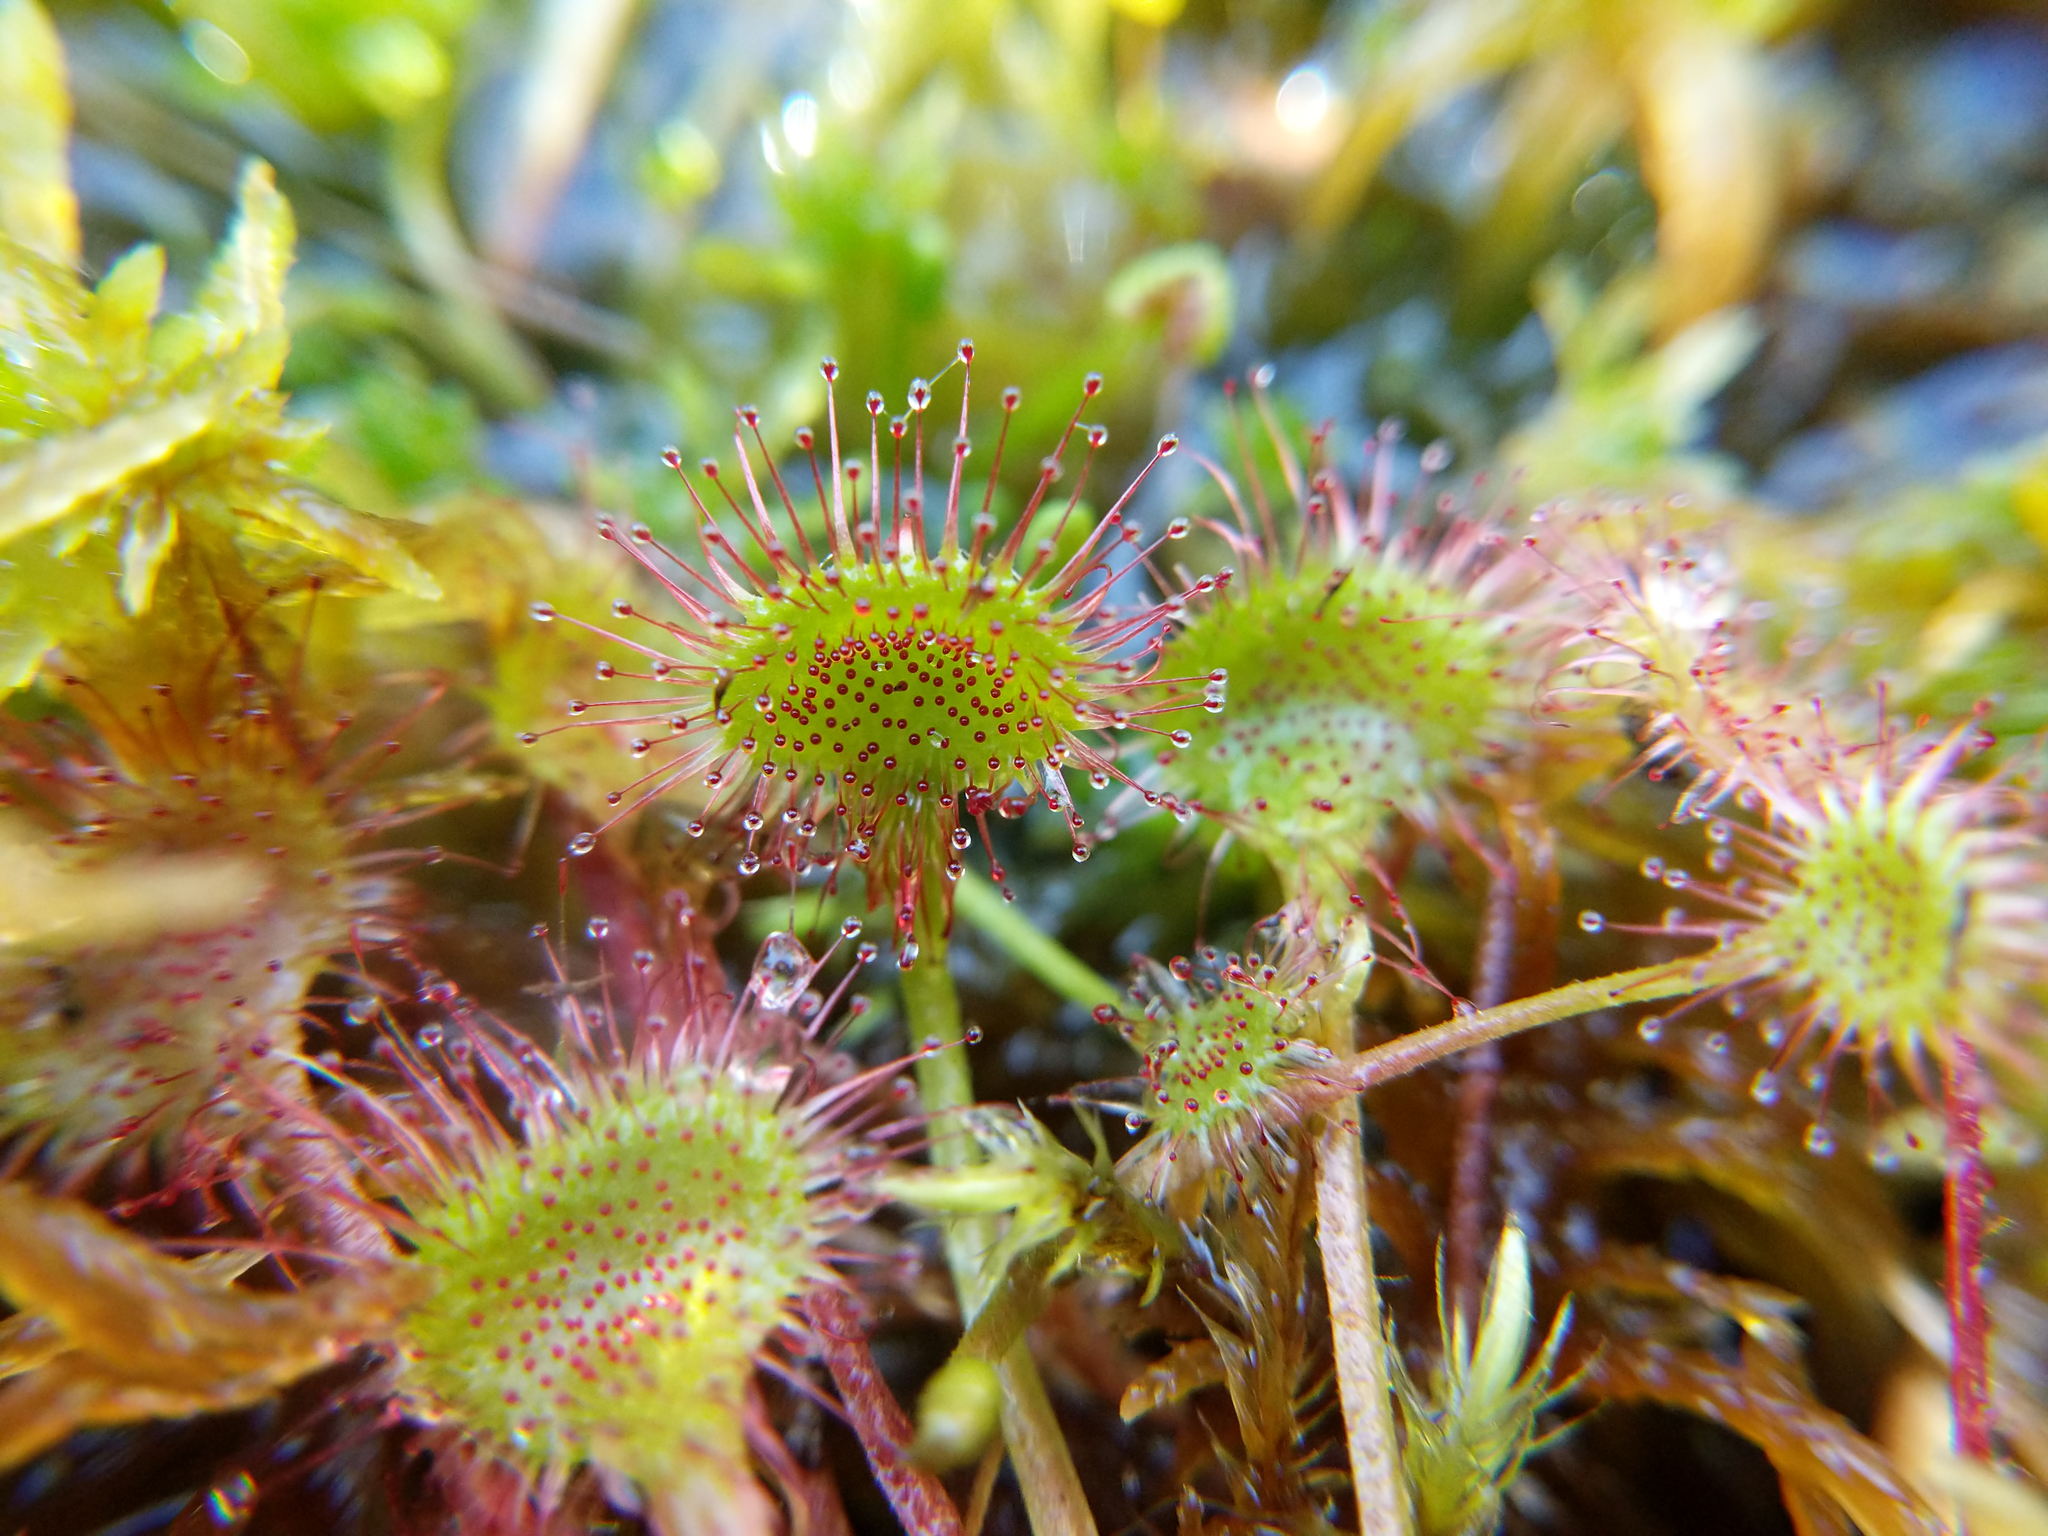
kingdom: Plantae
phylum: Tracheophyta
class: Magnoliopsida
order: Caryophyllales
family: Droseraceae
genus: Drosera
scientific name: Drosera rotundifolia
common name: Round-leaved sundew
